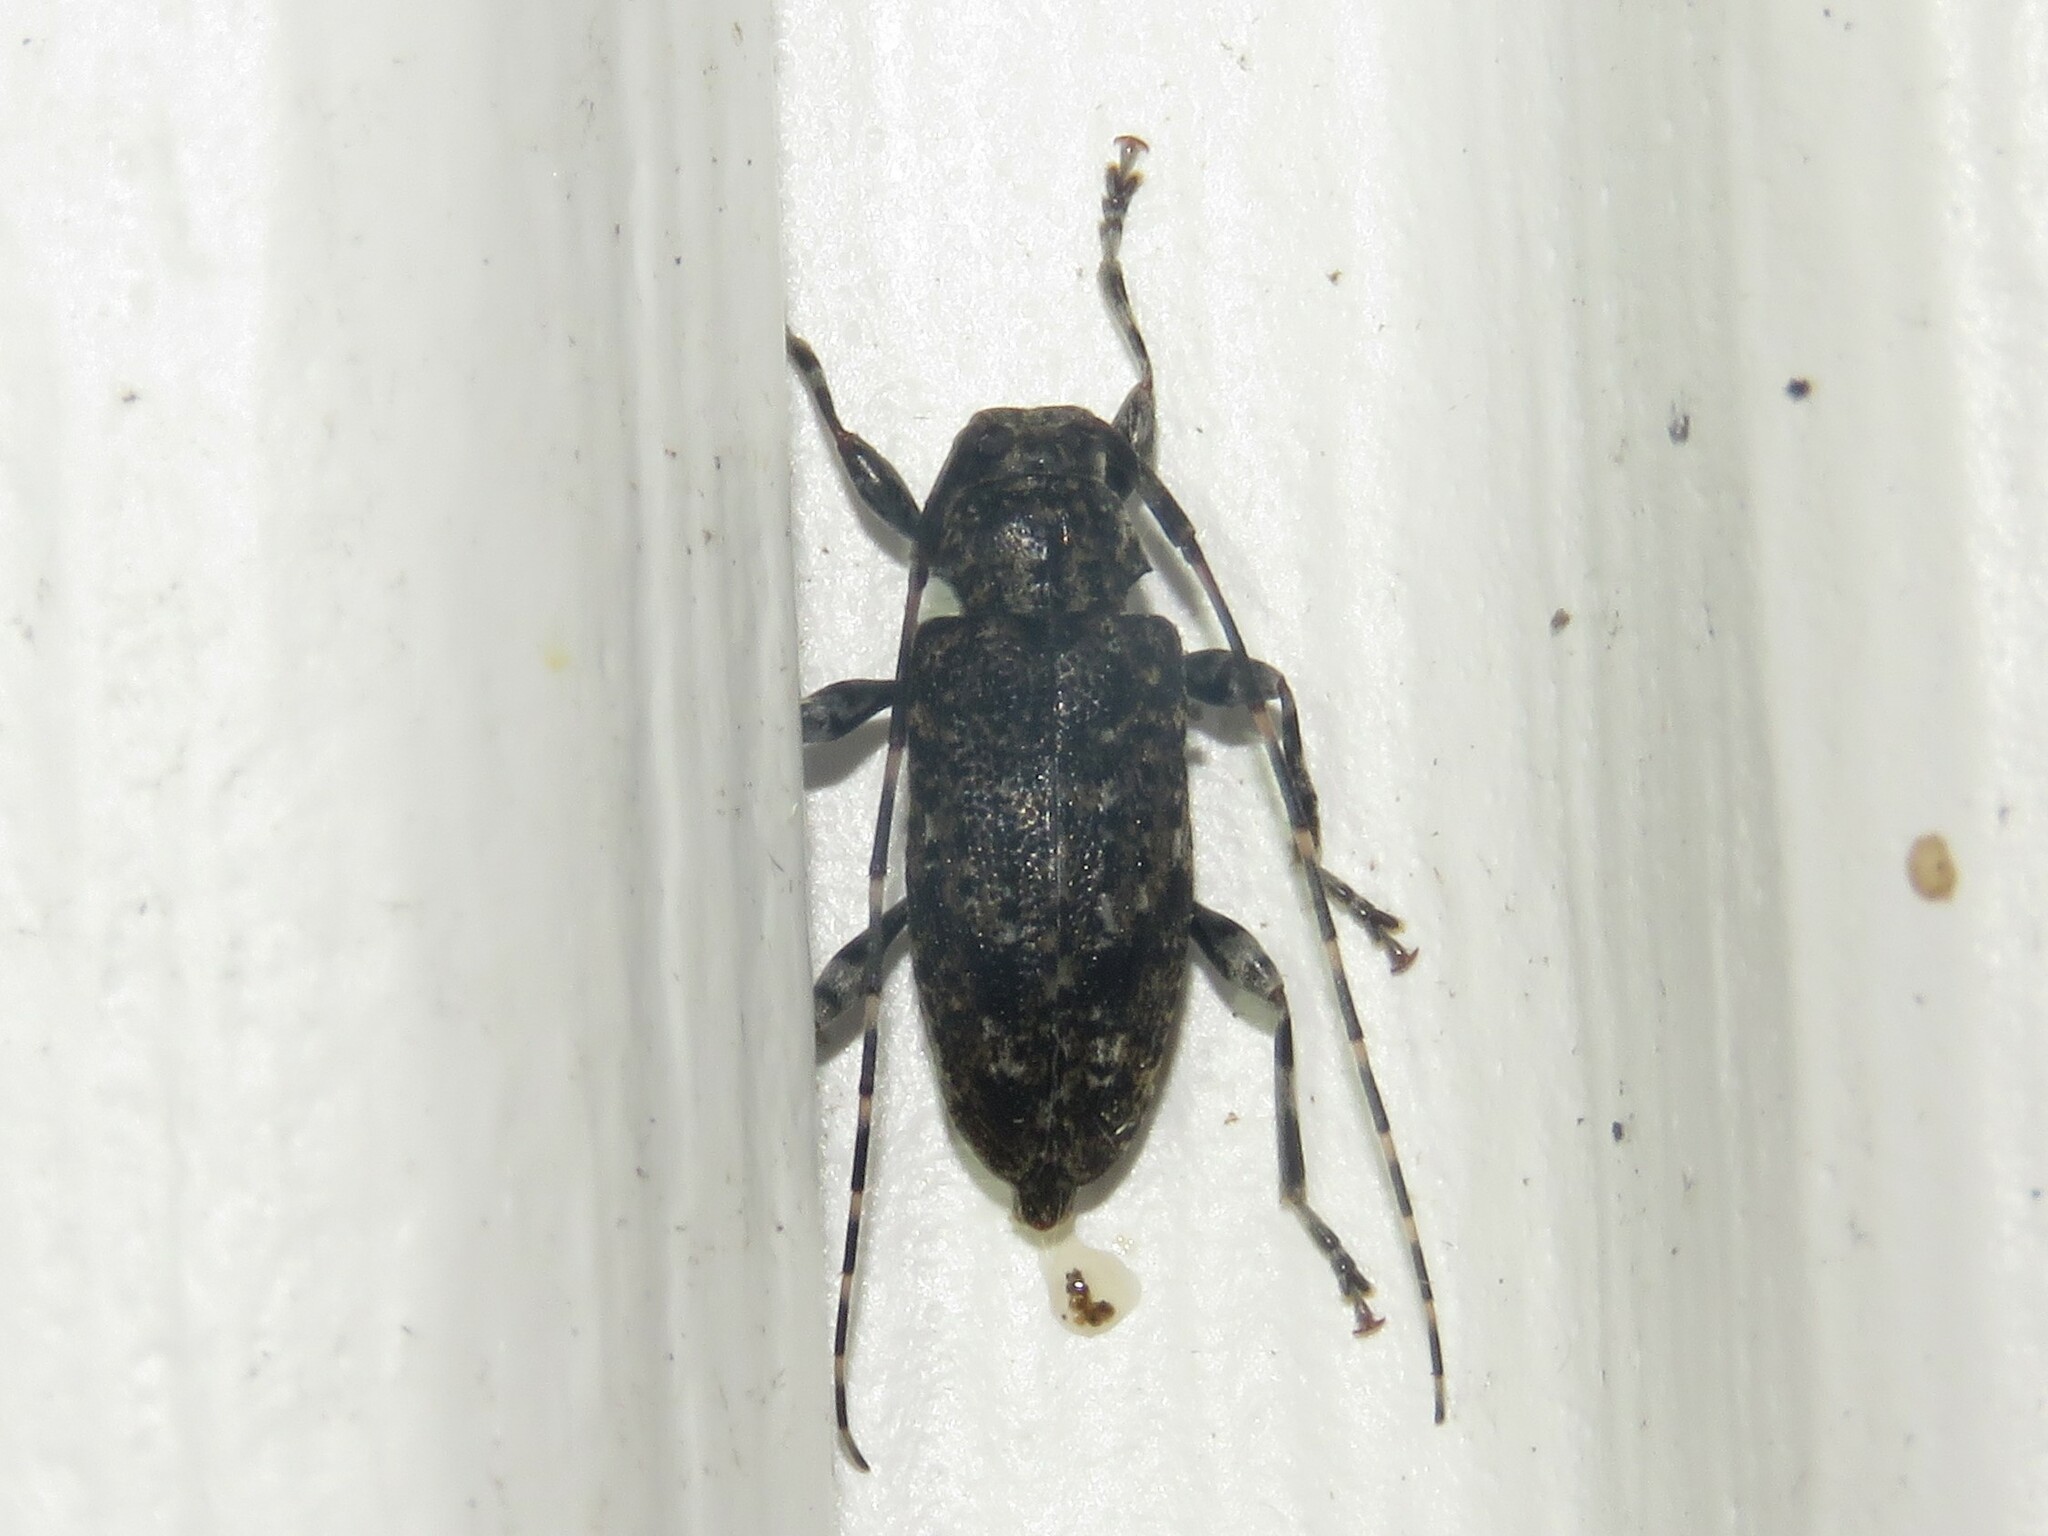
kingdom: Animalia
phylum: Arthropoda
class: Insecta
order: Coleoptera
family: Cerambycidae
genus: Astyleiopus
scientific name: Astyleiopus variegatus
